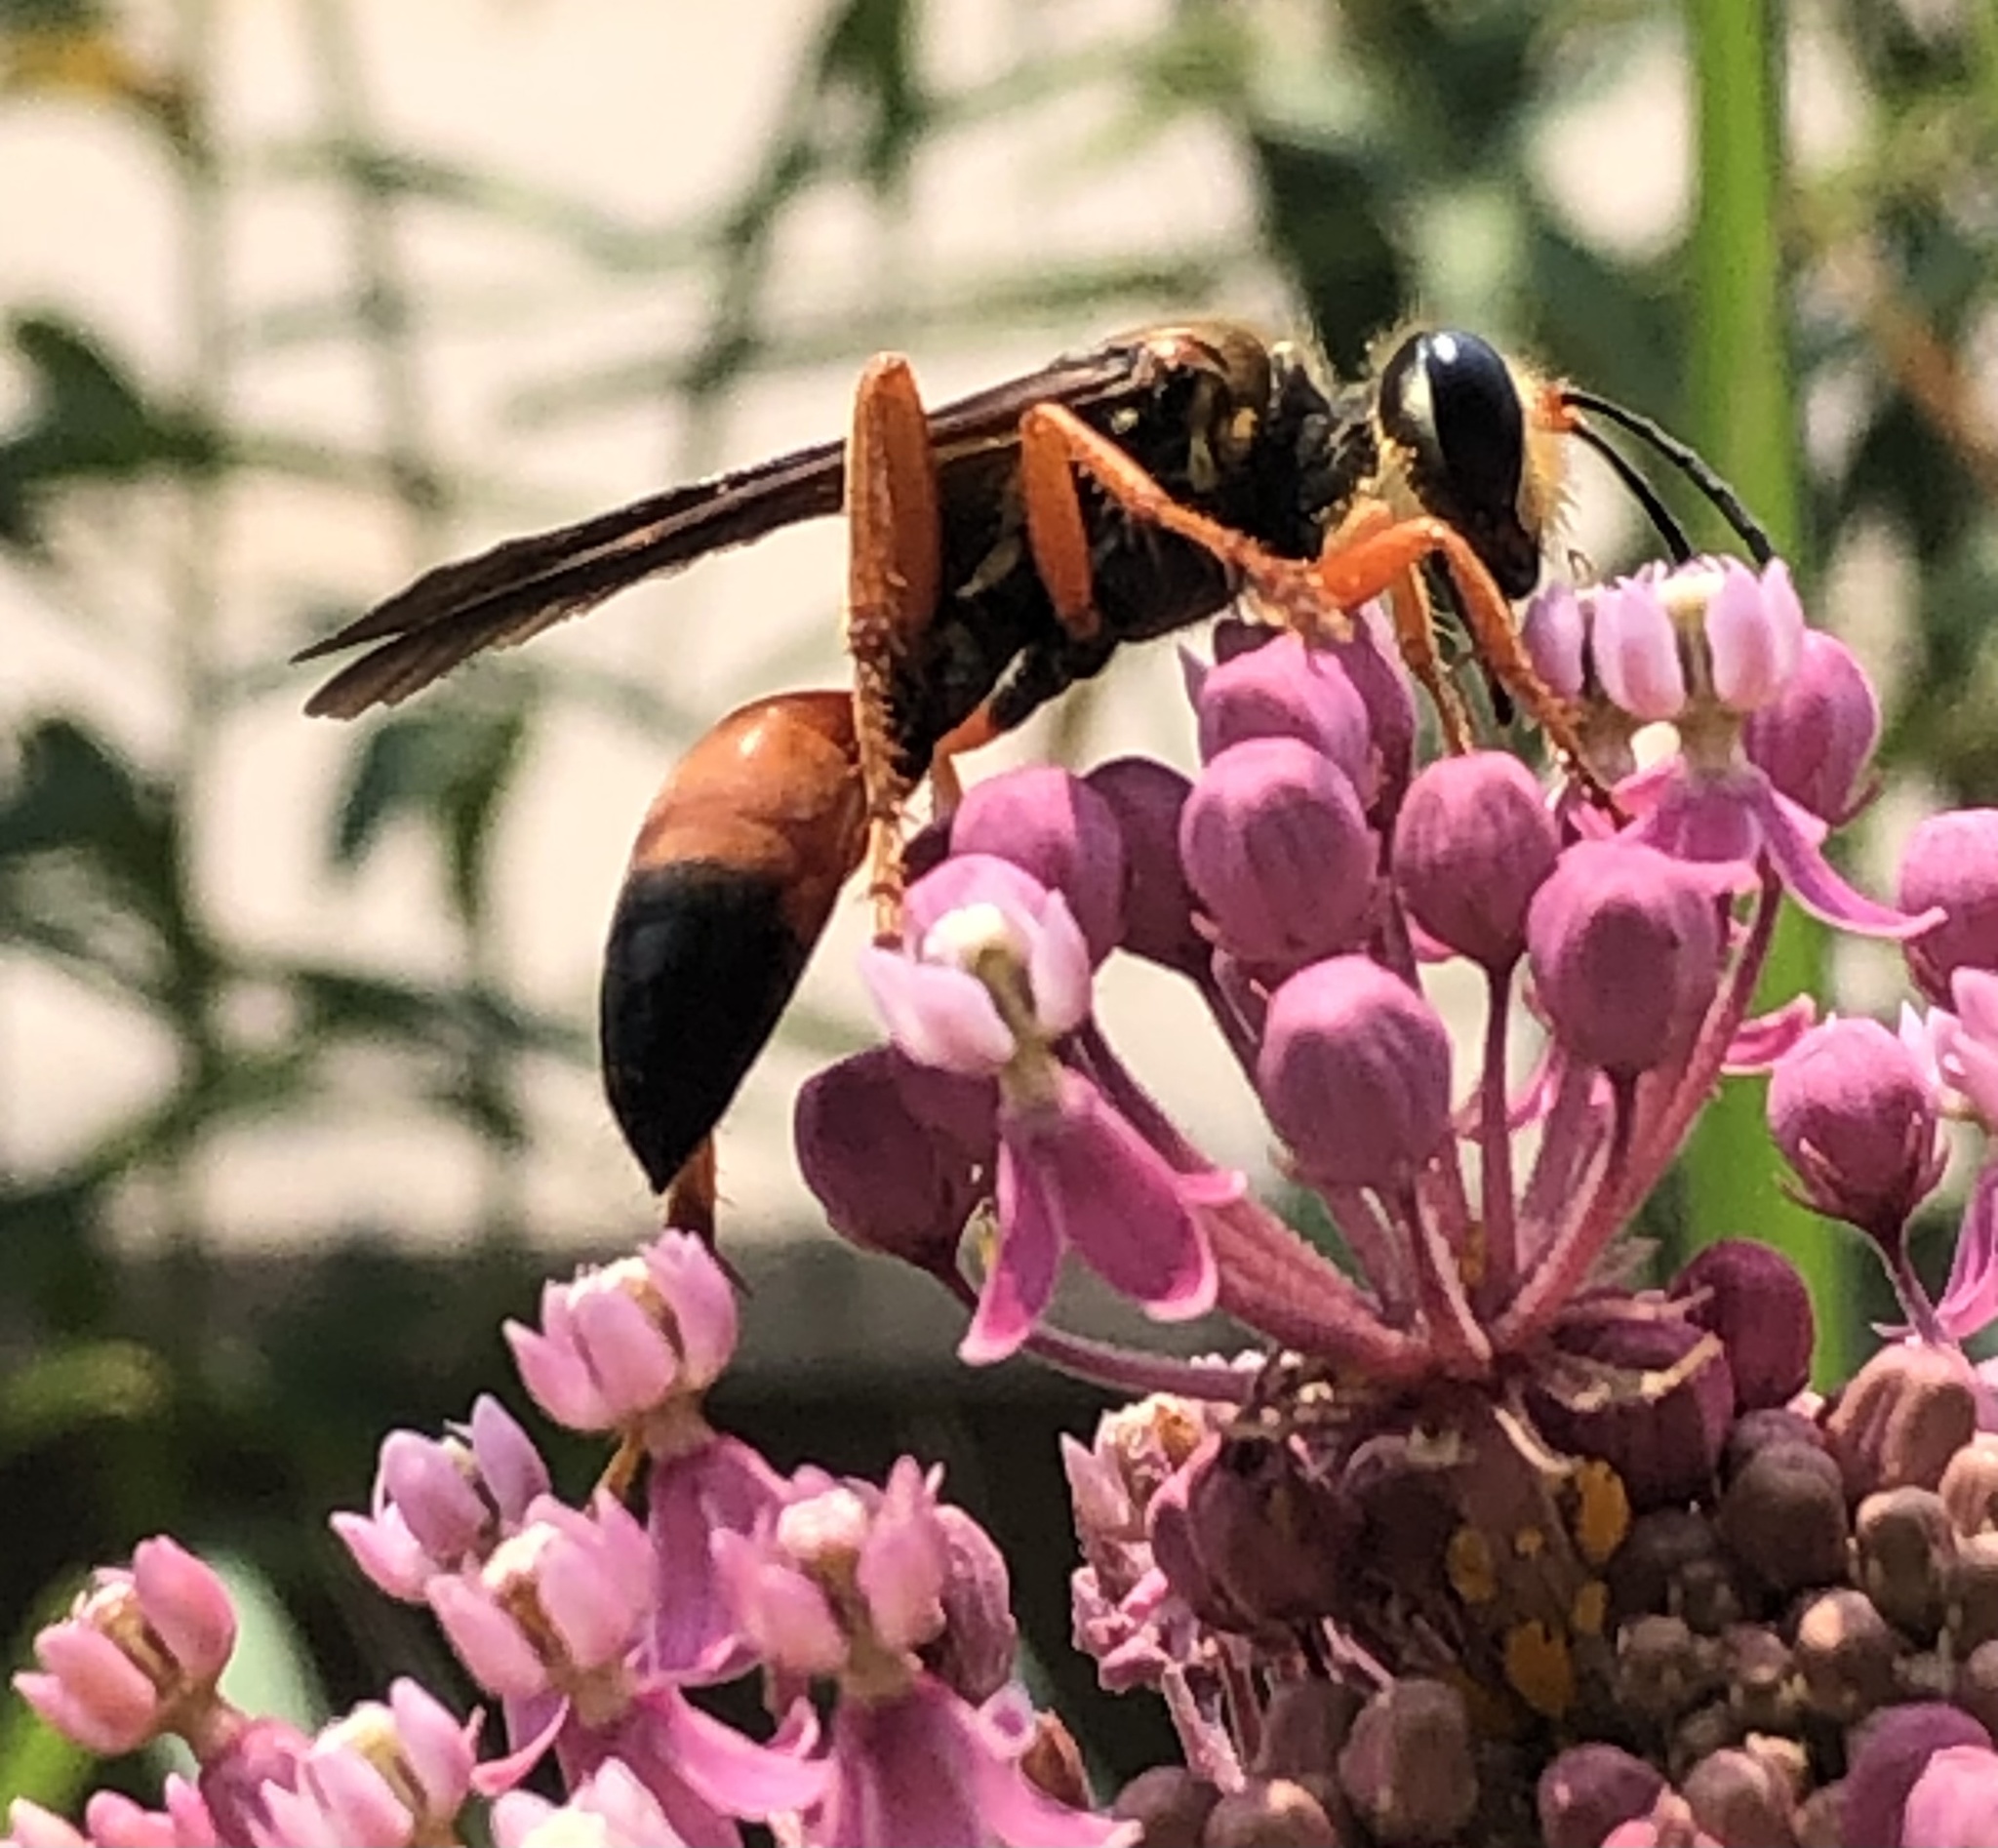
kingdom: Animalia
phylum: Arthropoda
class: Insecta
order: Hymenoptera
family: Sphecidae
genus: Sphex
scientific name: Sphex ichneumoneus
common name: Great golden digger wasp
